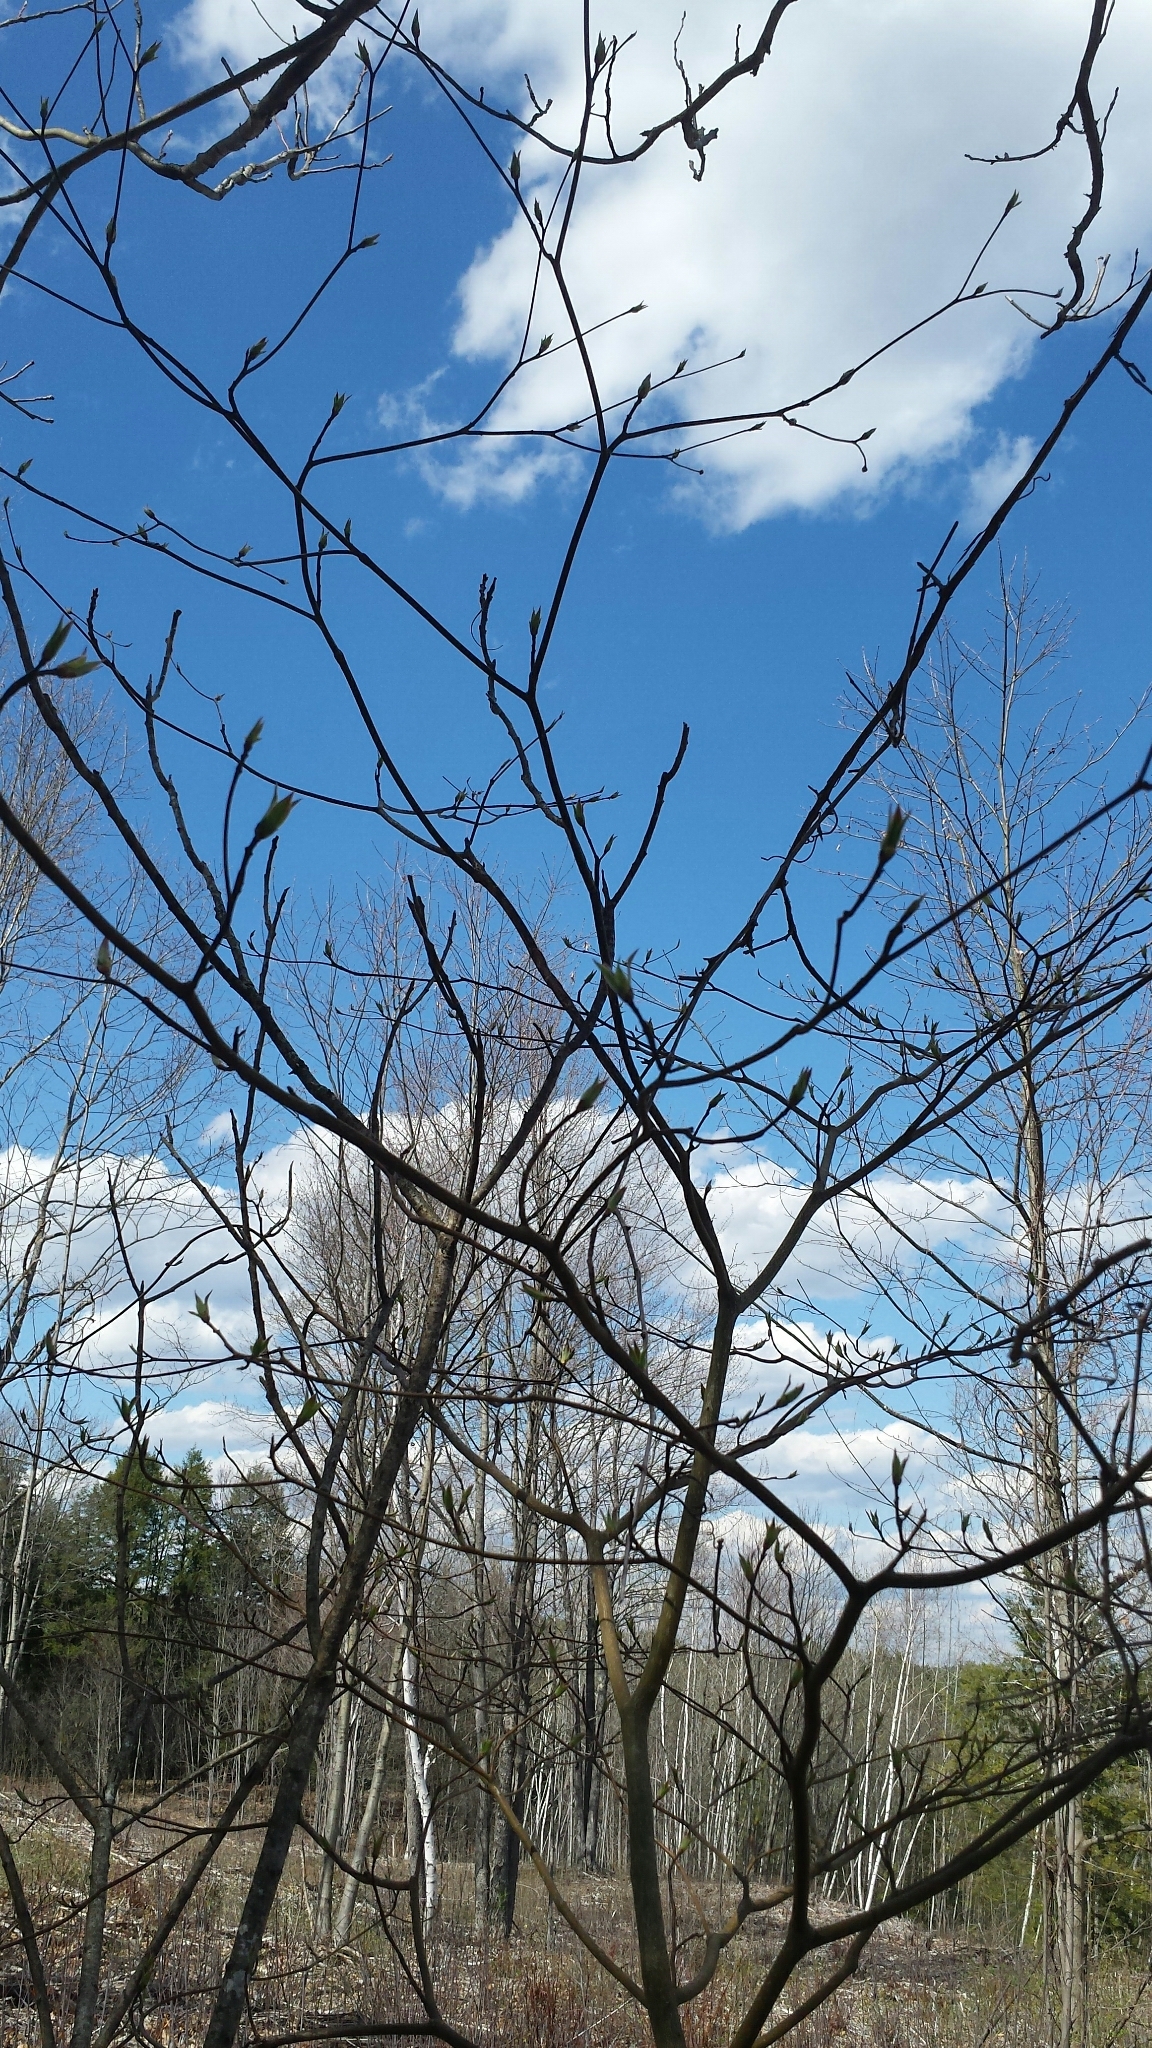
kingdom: Plantae
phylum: Tracheophyta
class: Magnoliopsida
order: Cornales
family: Cornaceae
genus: Cornus
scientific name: Cornus alternifolia
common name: Pagoda dogwood
